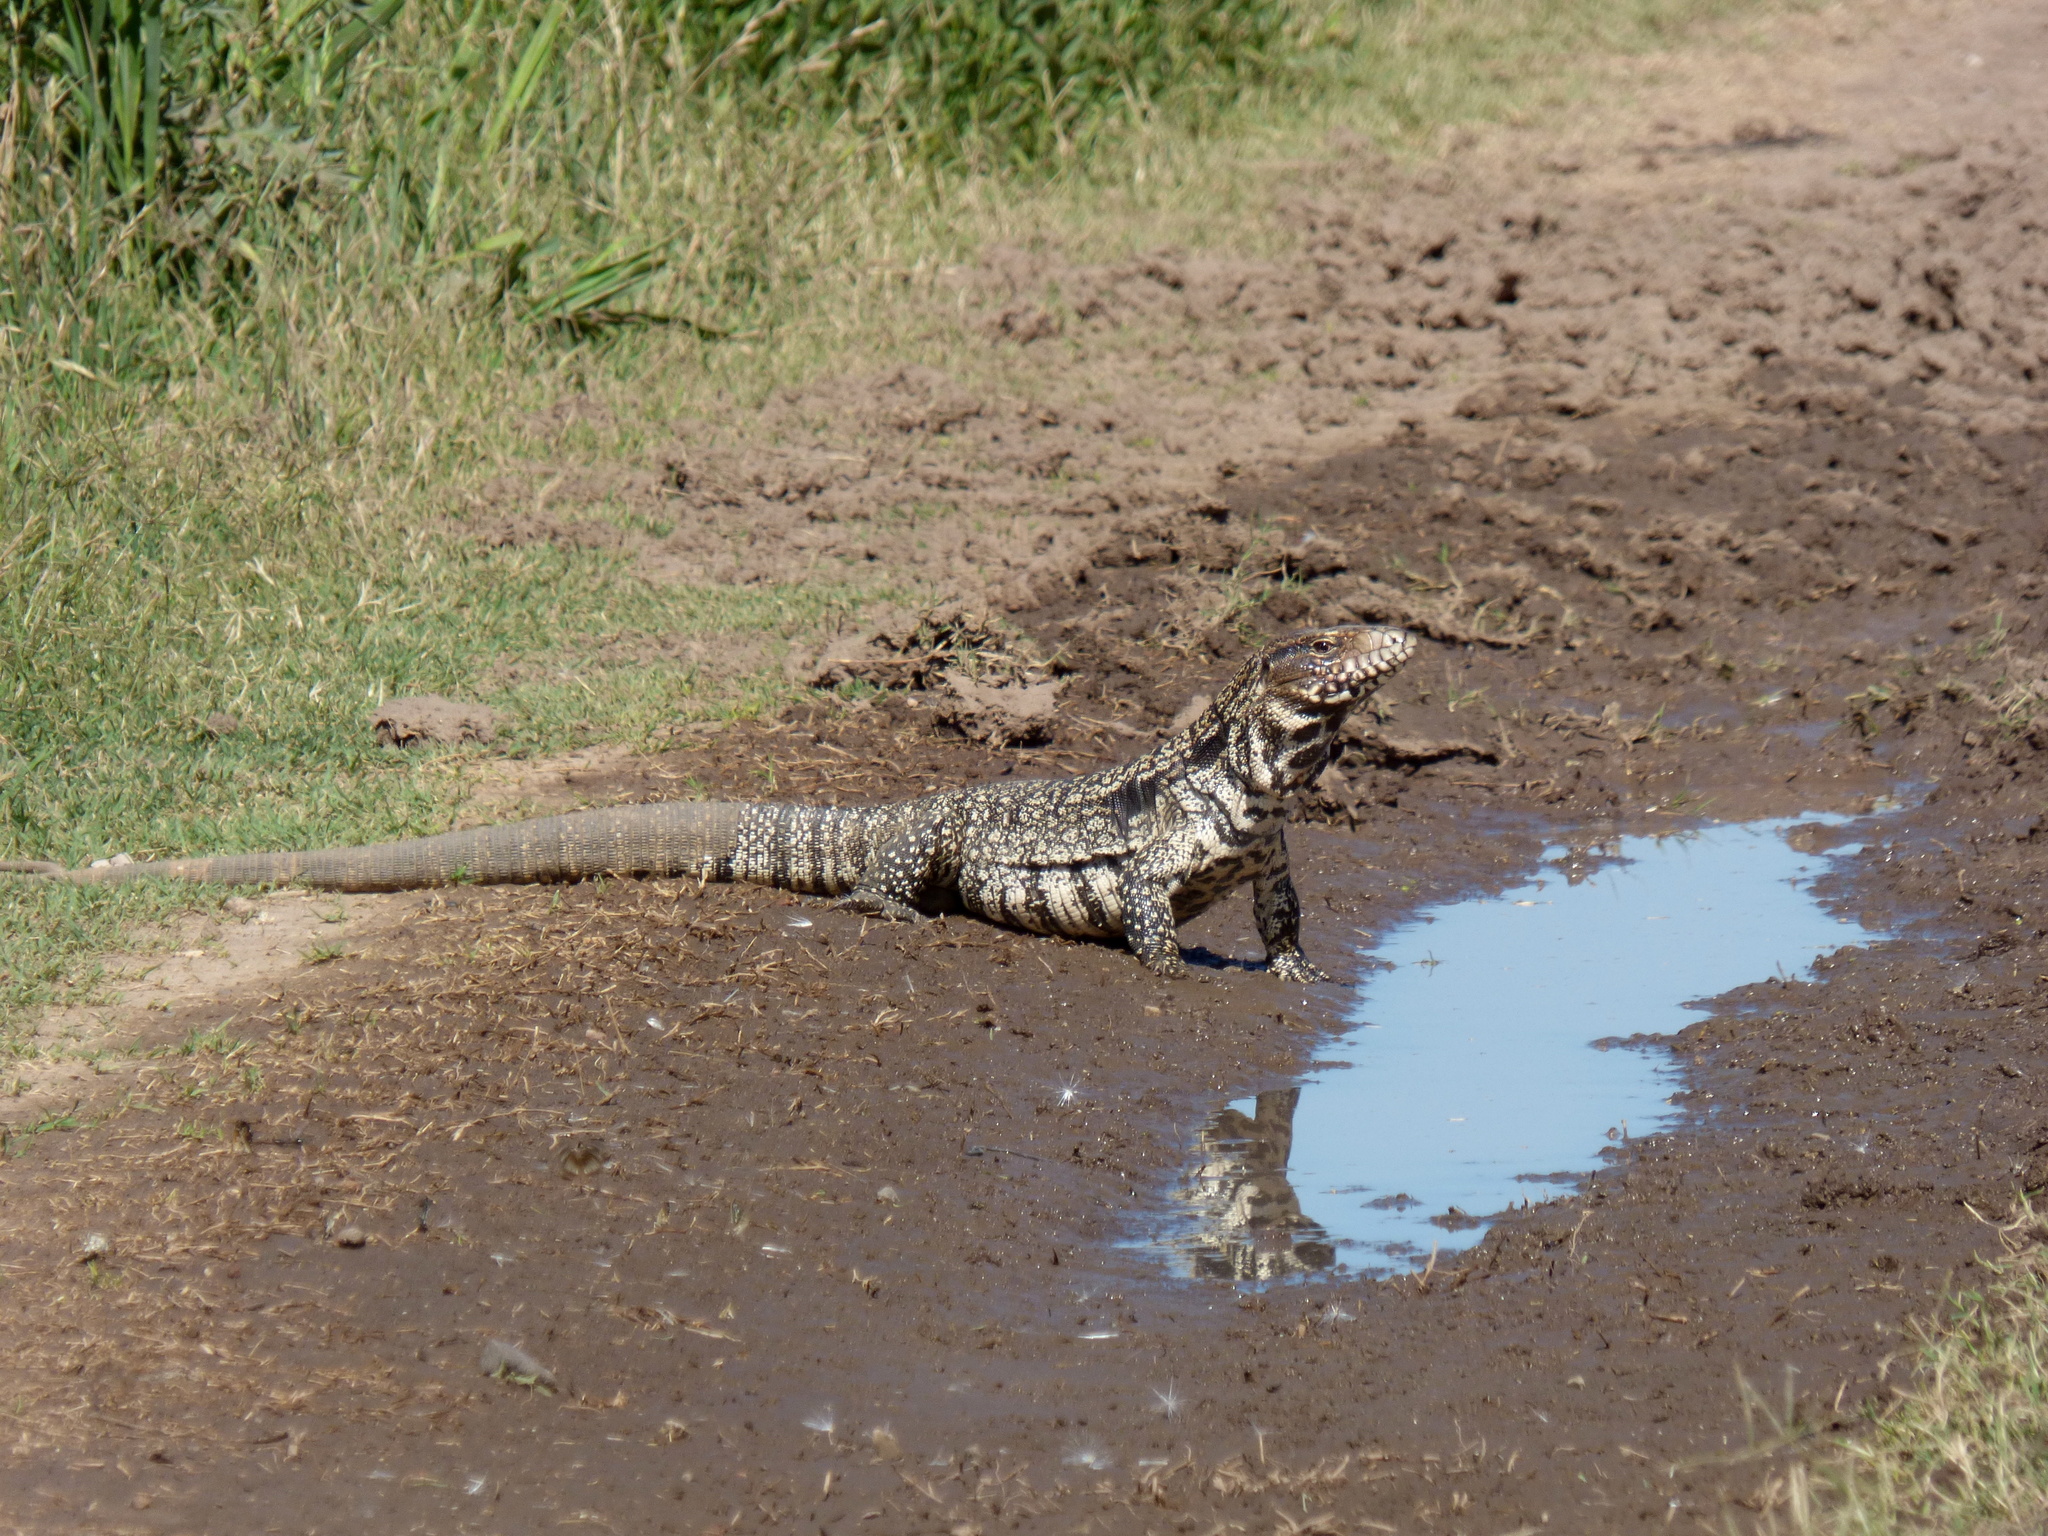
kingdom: Animalia
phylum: Chordata
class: Squamata
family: Teiidae
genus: Salvator
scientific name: Salvator merianae
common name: Argentine black and white tegu
